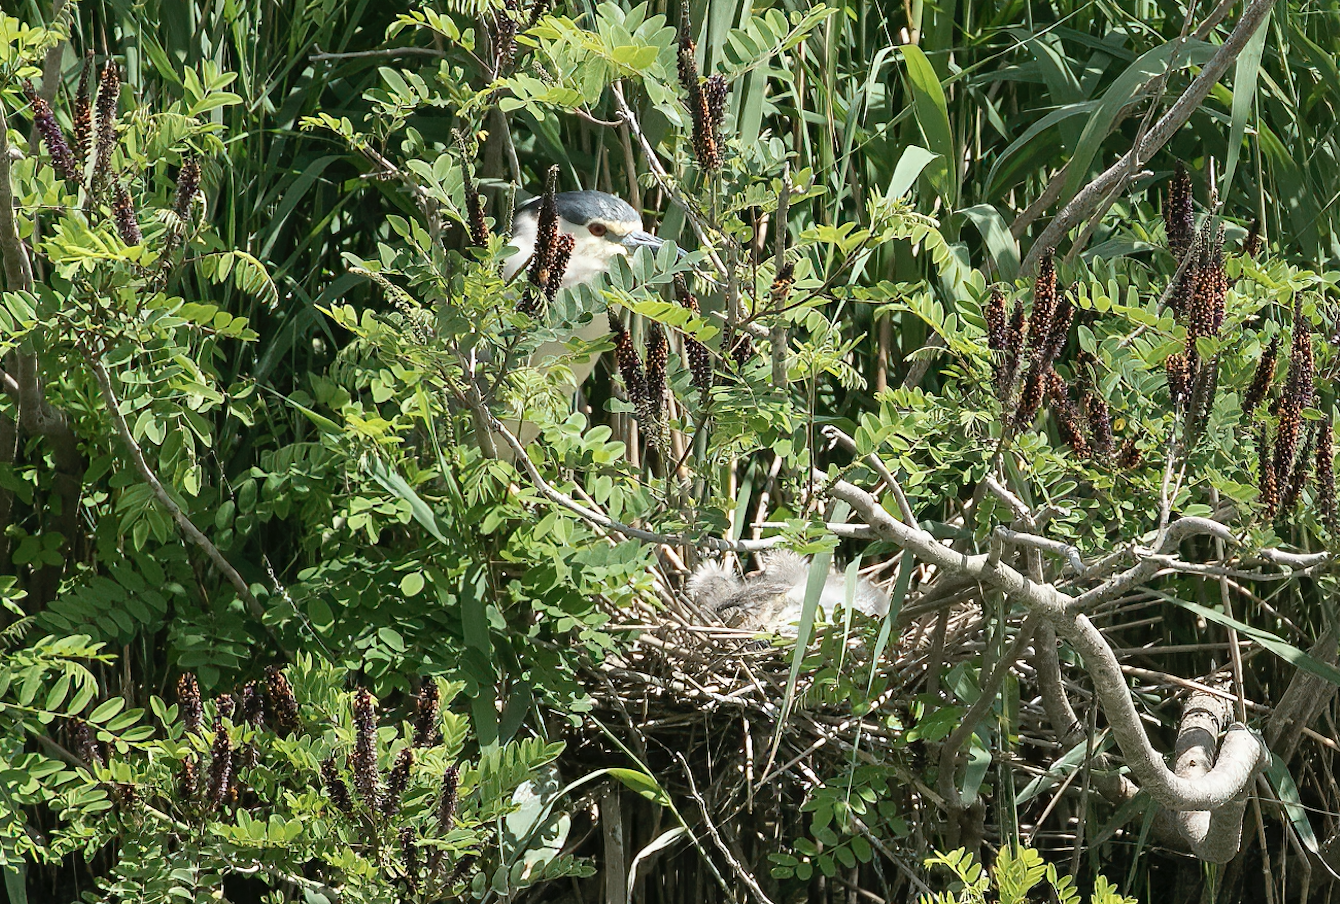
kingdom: Animalia
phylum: Chordata
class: Aves
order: Pelecaniformes
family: Ardeidae
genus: Nycticorax
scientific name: Nycticorax nycticorax
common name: Black-crowned night heron
